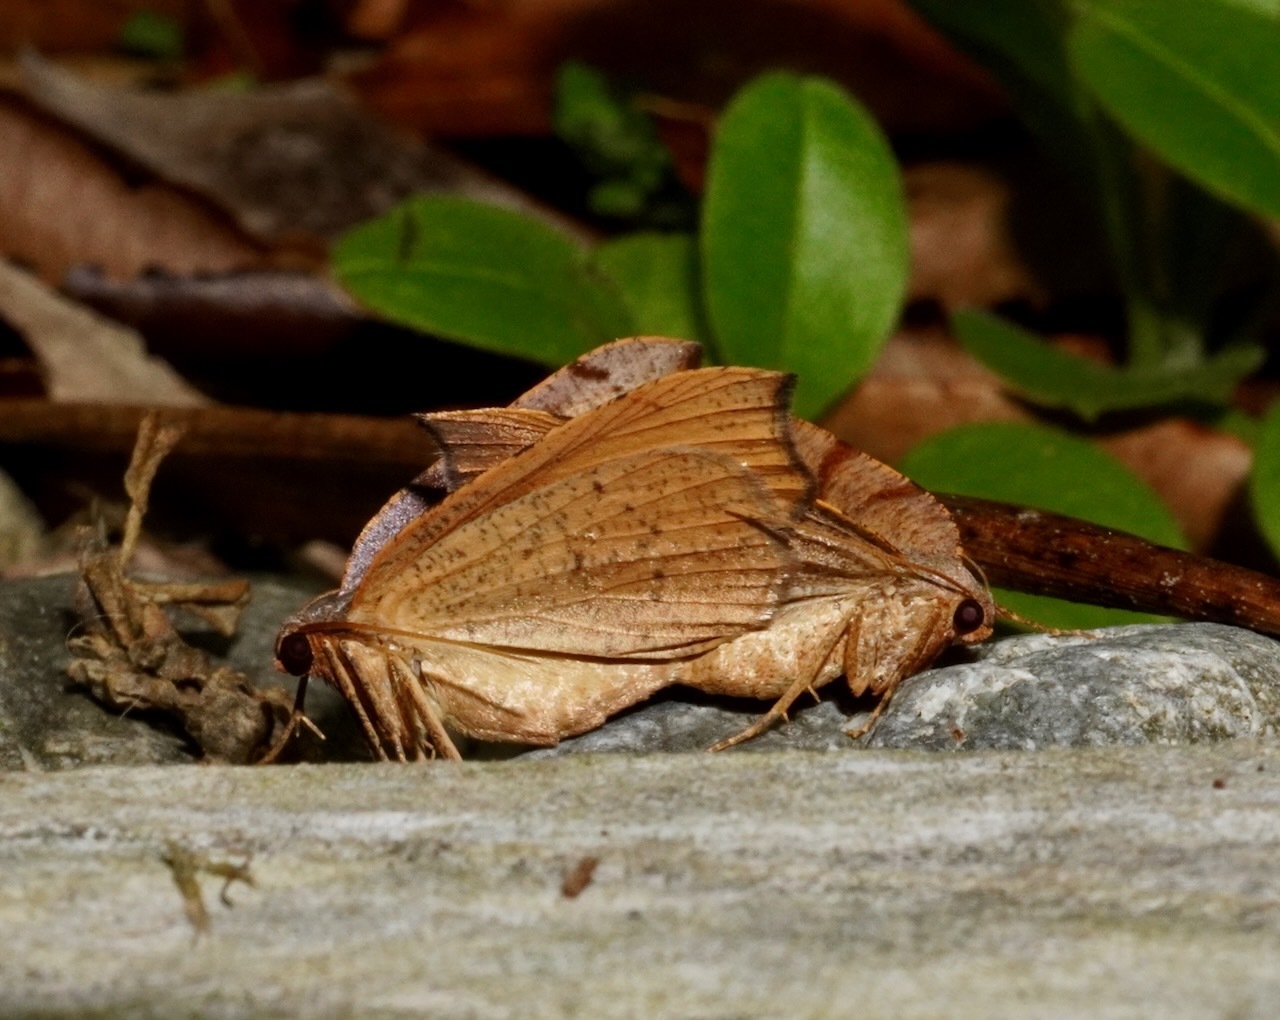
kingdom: Animalia
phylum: Arthropoda
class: Insecta
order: Lepidoptera
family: Geometridae
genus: Sestra
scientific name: Sestra flexata
